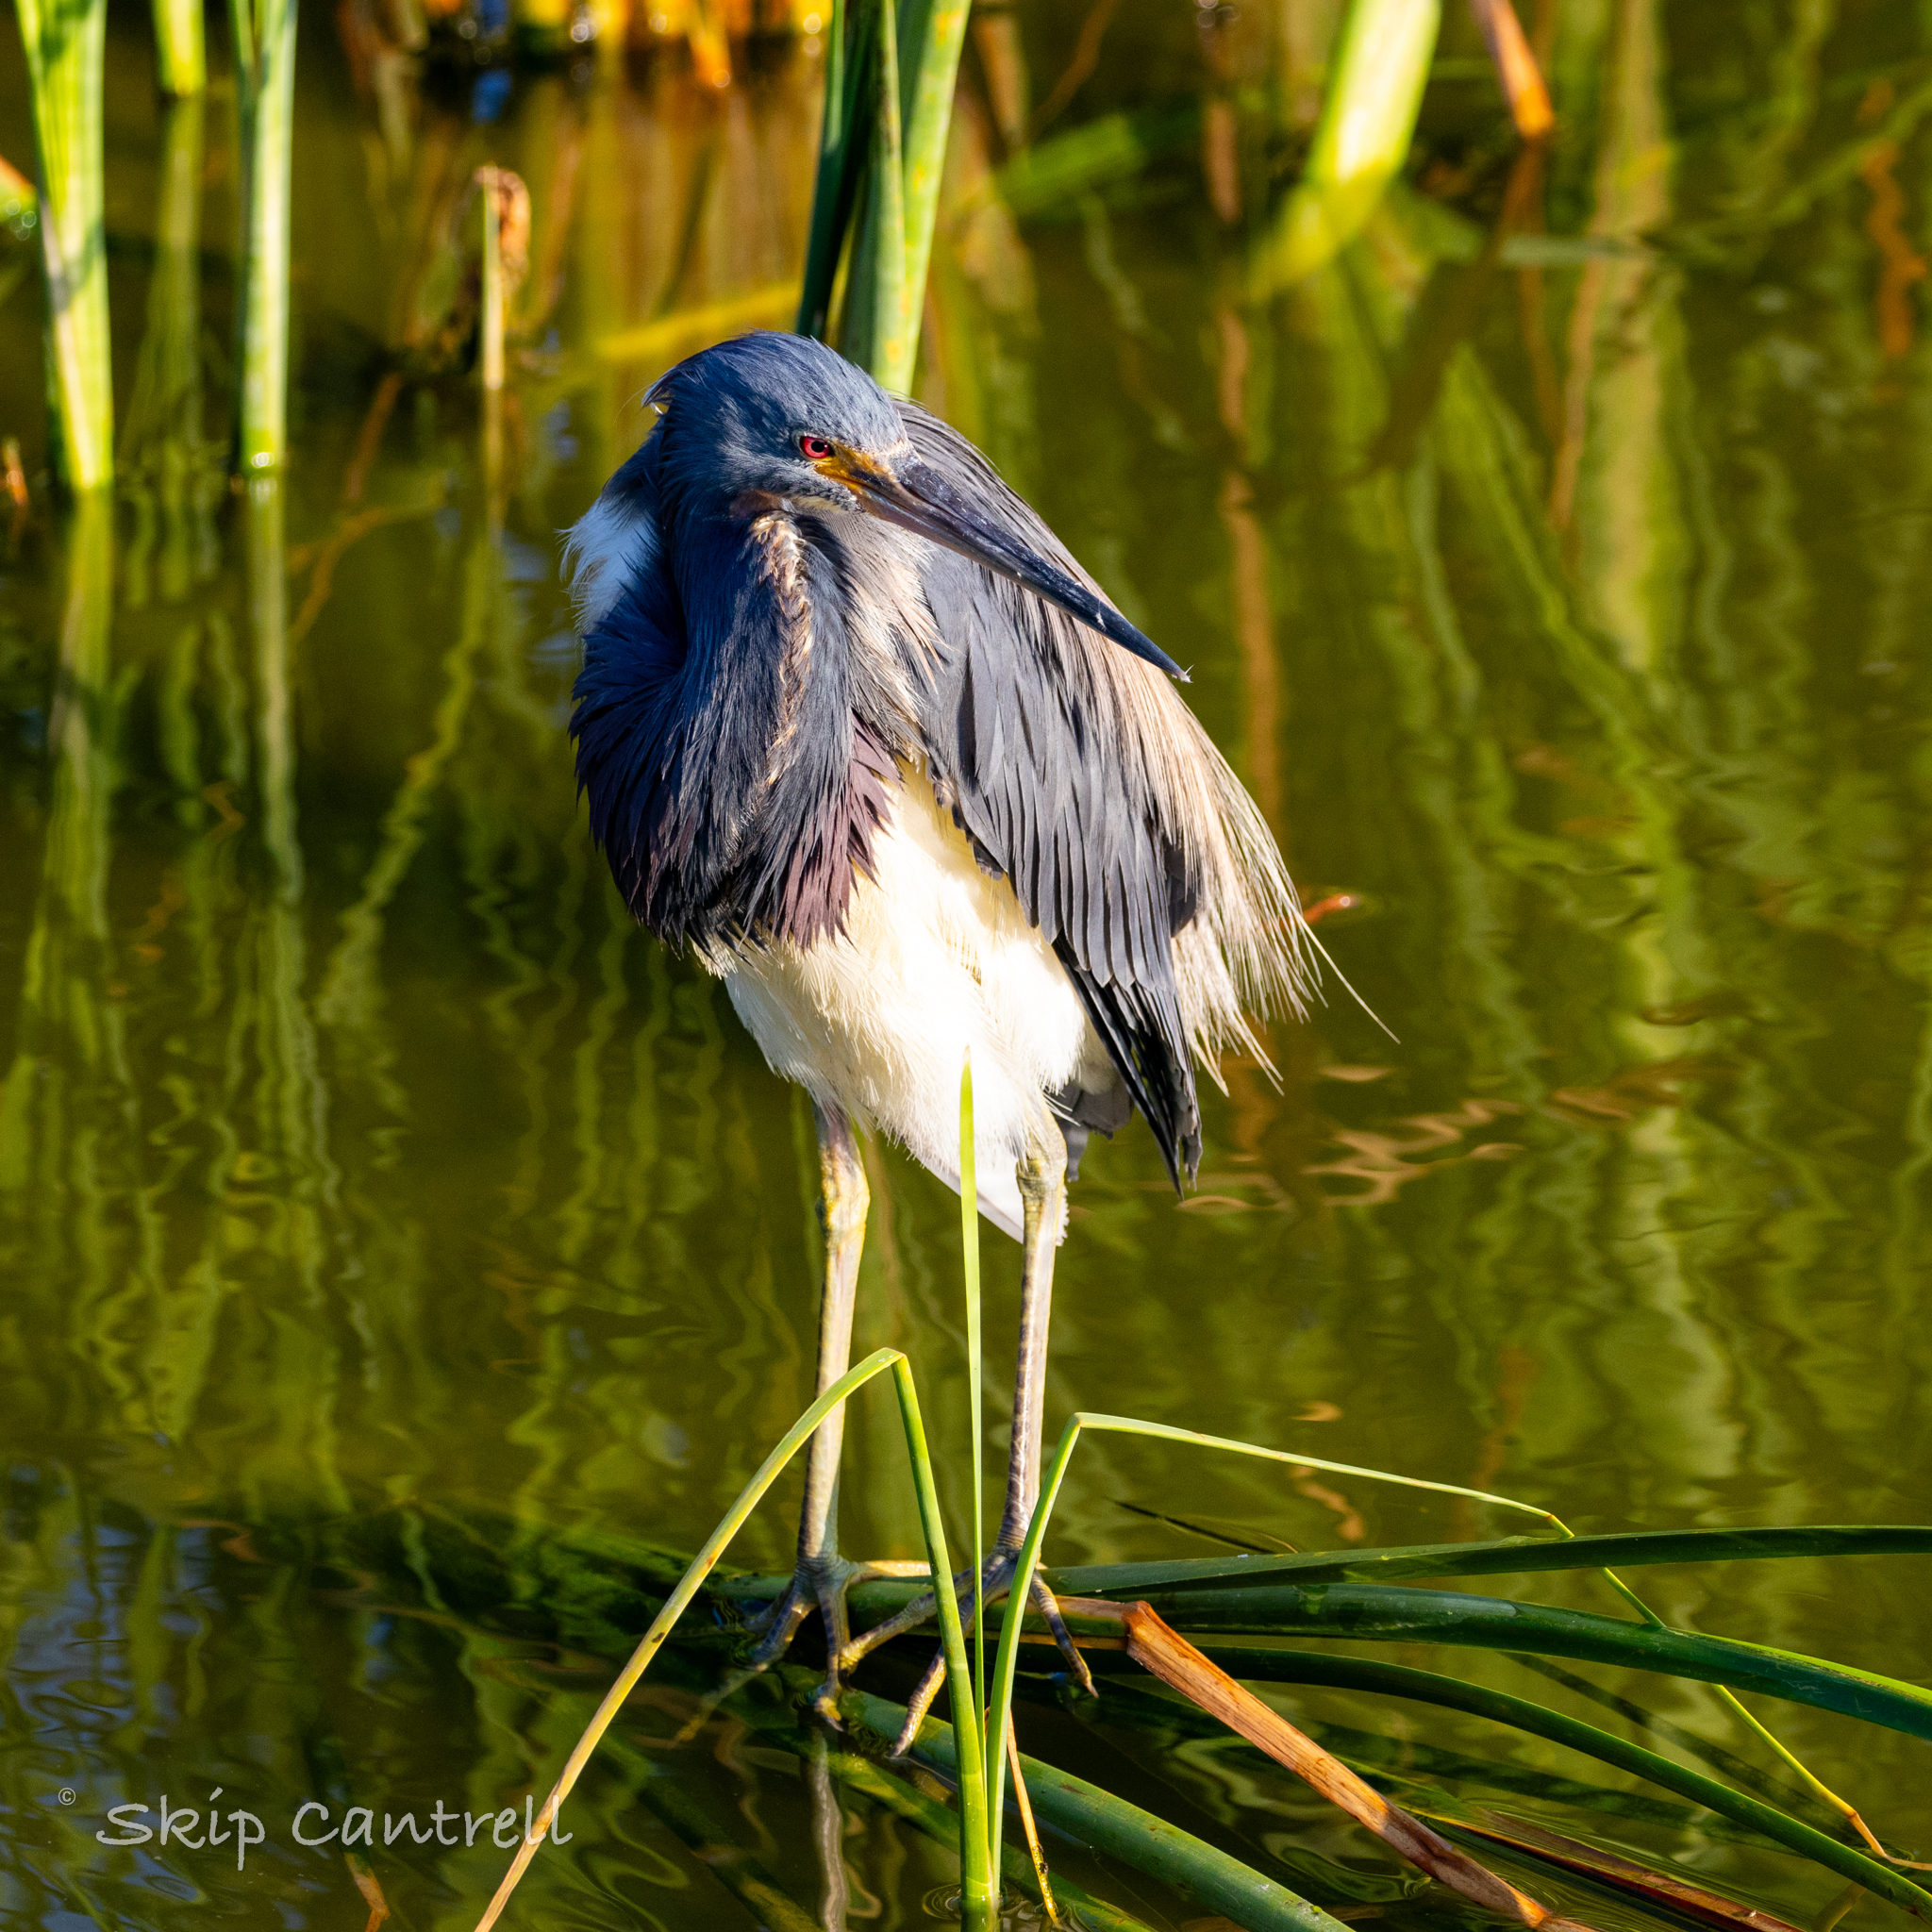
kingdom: Animalia
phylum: Chordata
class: Aves
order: Pelecaniformes
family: Ardeidae
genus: Egretta
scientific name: Egretta tricolor
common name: Tricolored heron
